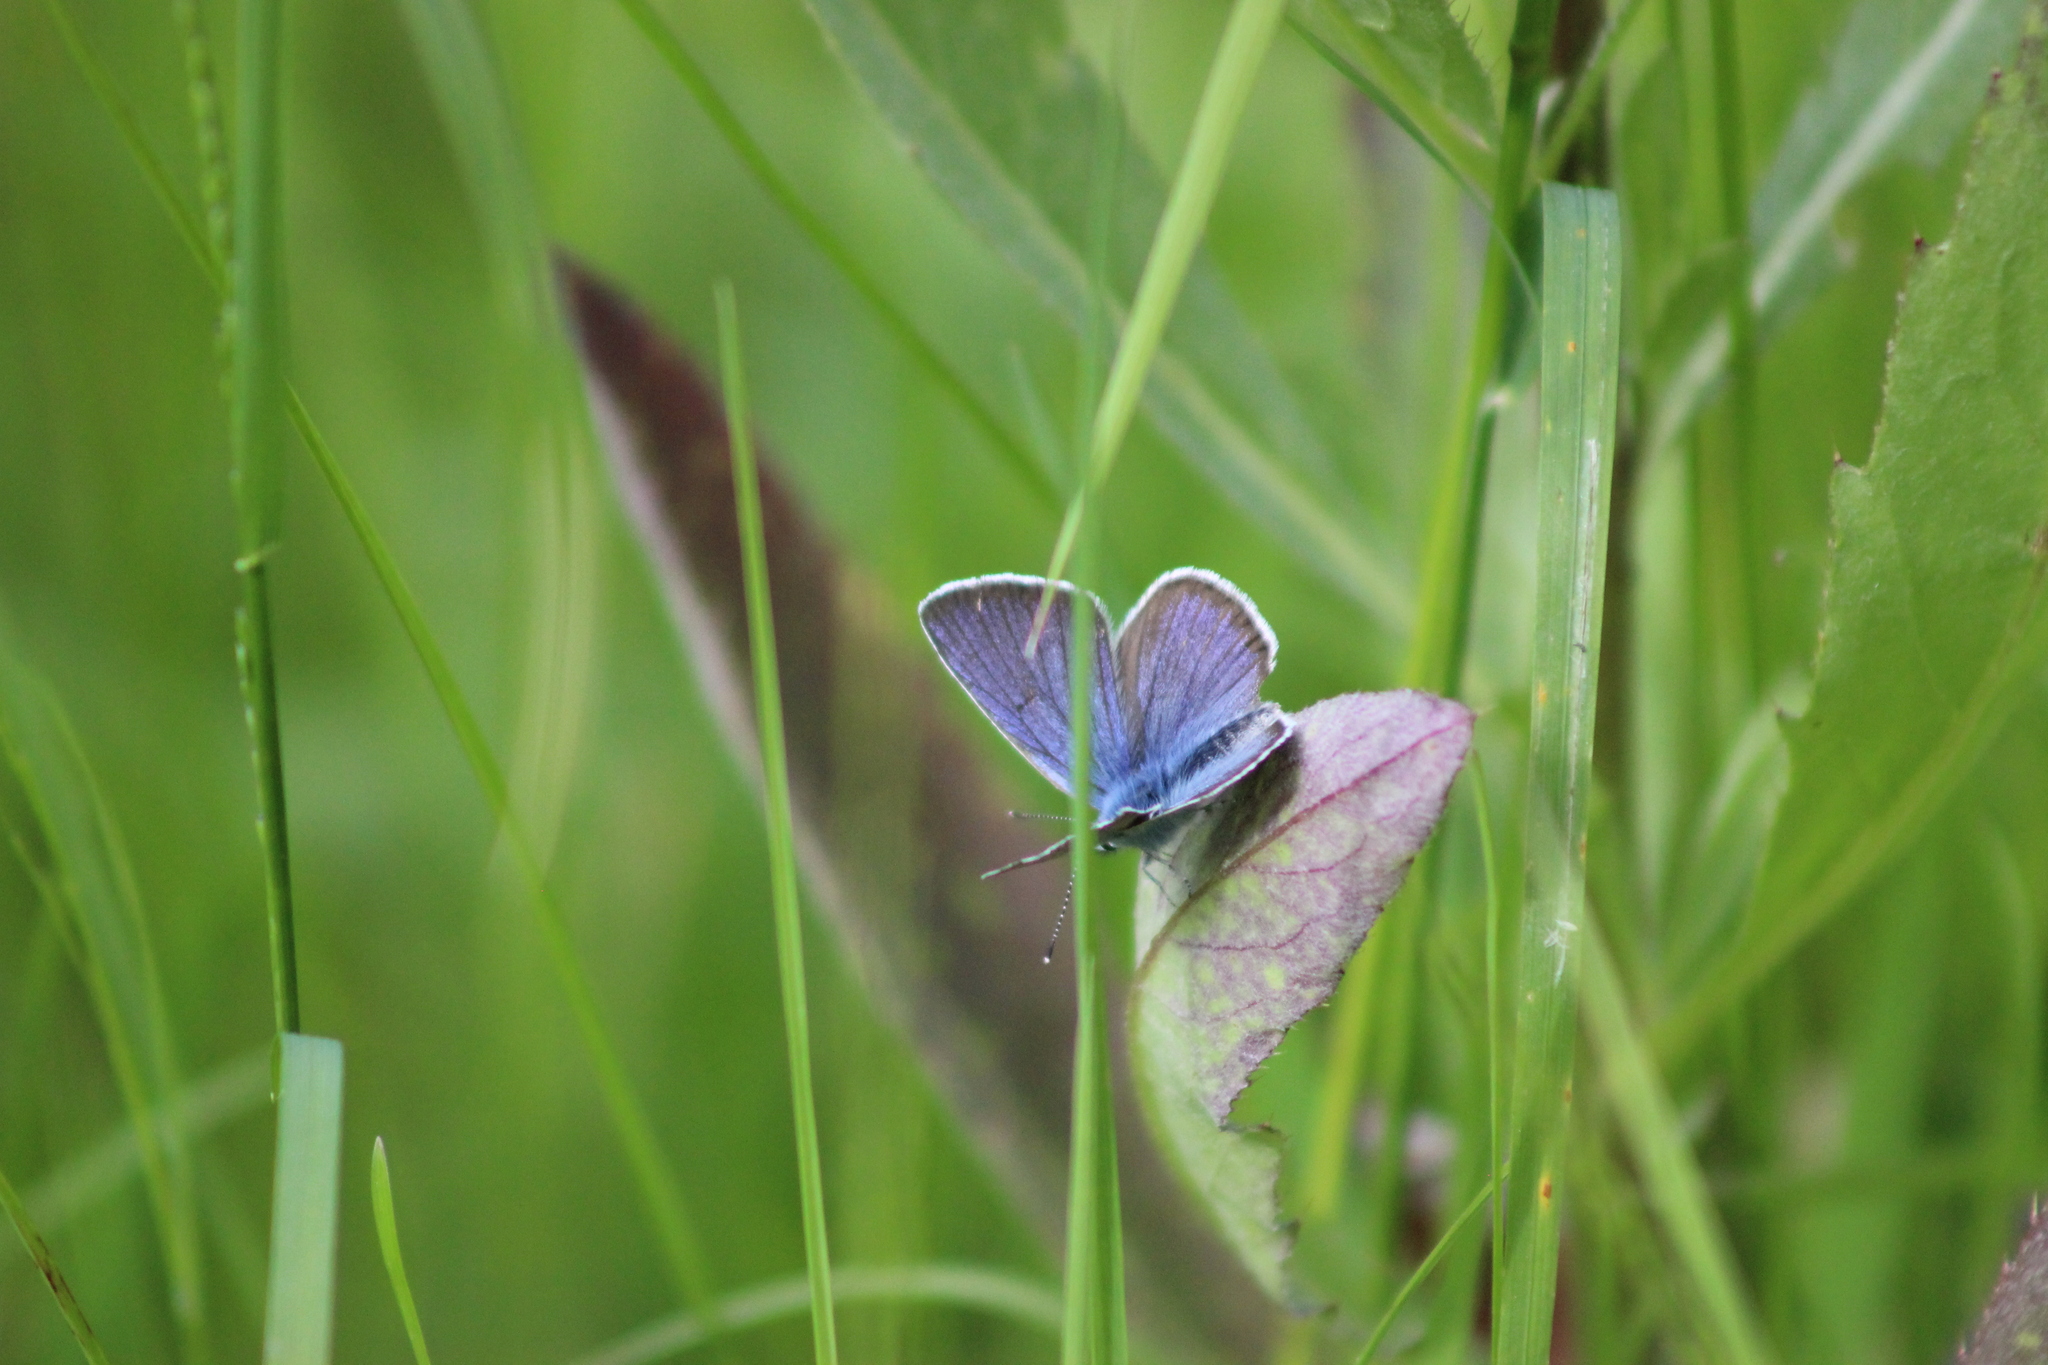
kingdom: Animalia
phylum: Arthropoda
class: Insecta
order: Lepidoptera
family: Lycaenidae
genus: Cyaniris
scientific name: Cyaniris semiargus
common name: Mazarine blue
